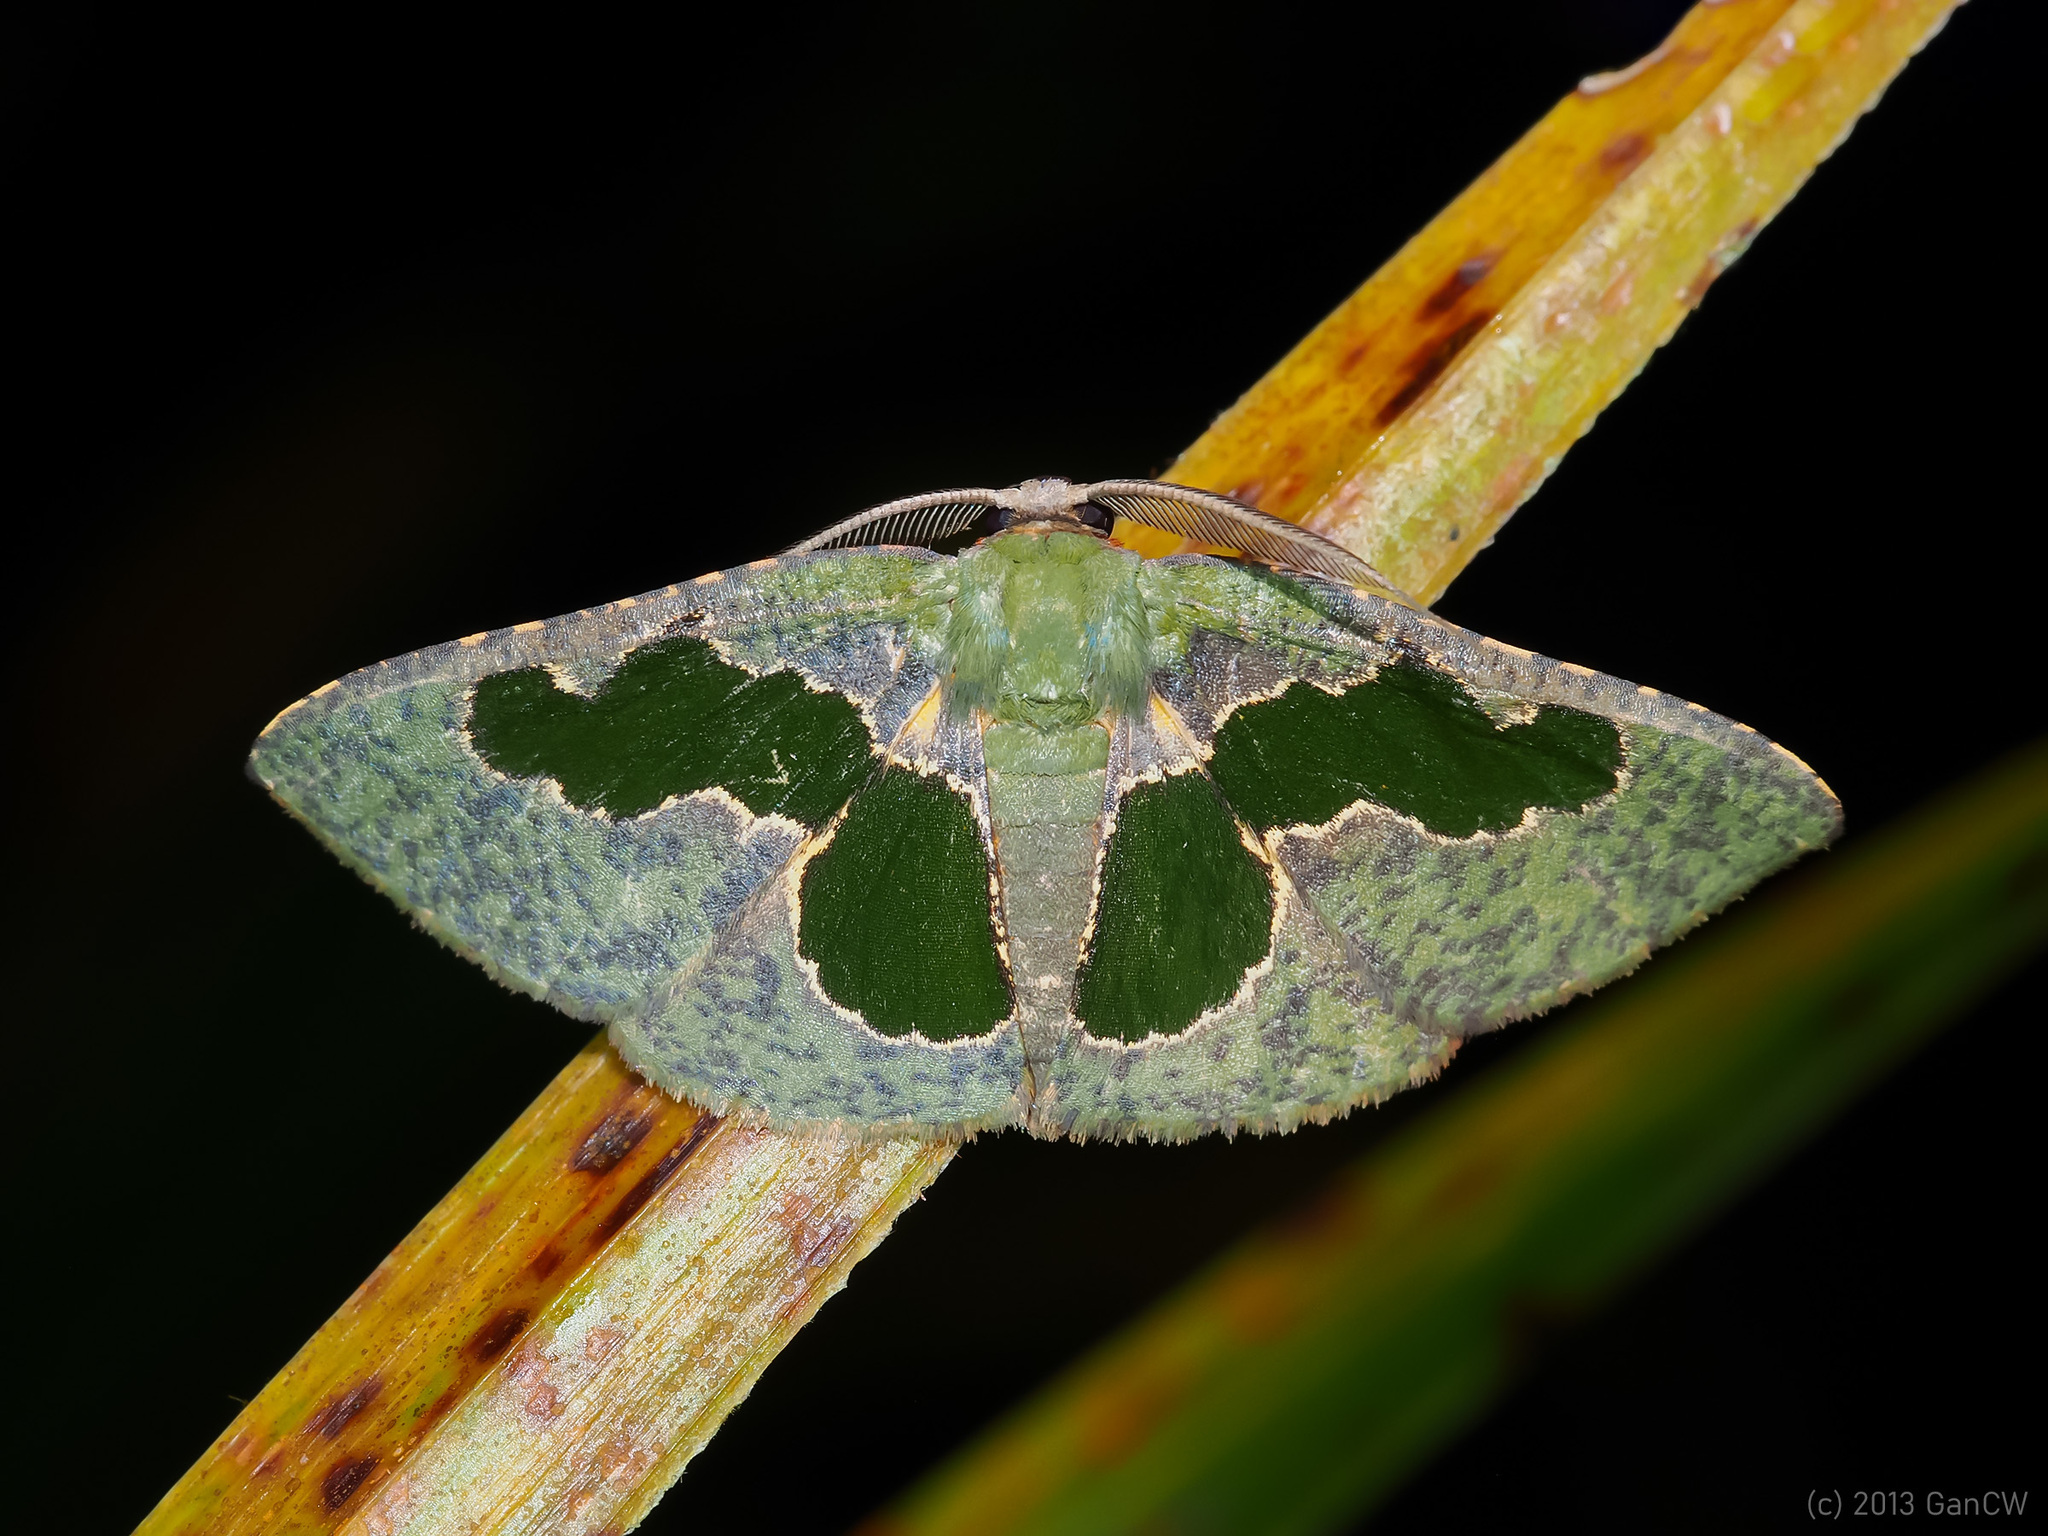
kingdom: Animalia
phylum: Arthropoda
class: Insecta
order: Lepidoptera
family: Geometridae
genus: Celenna
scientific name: Celenna
